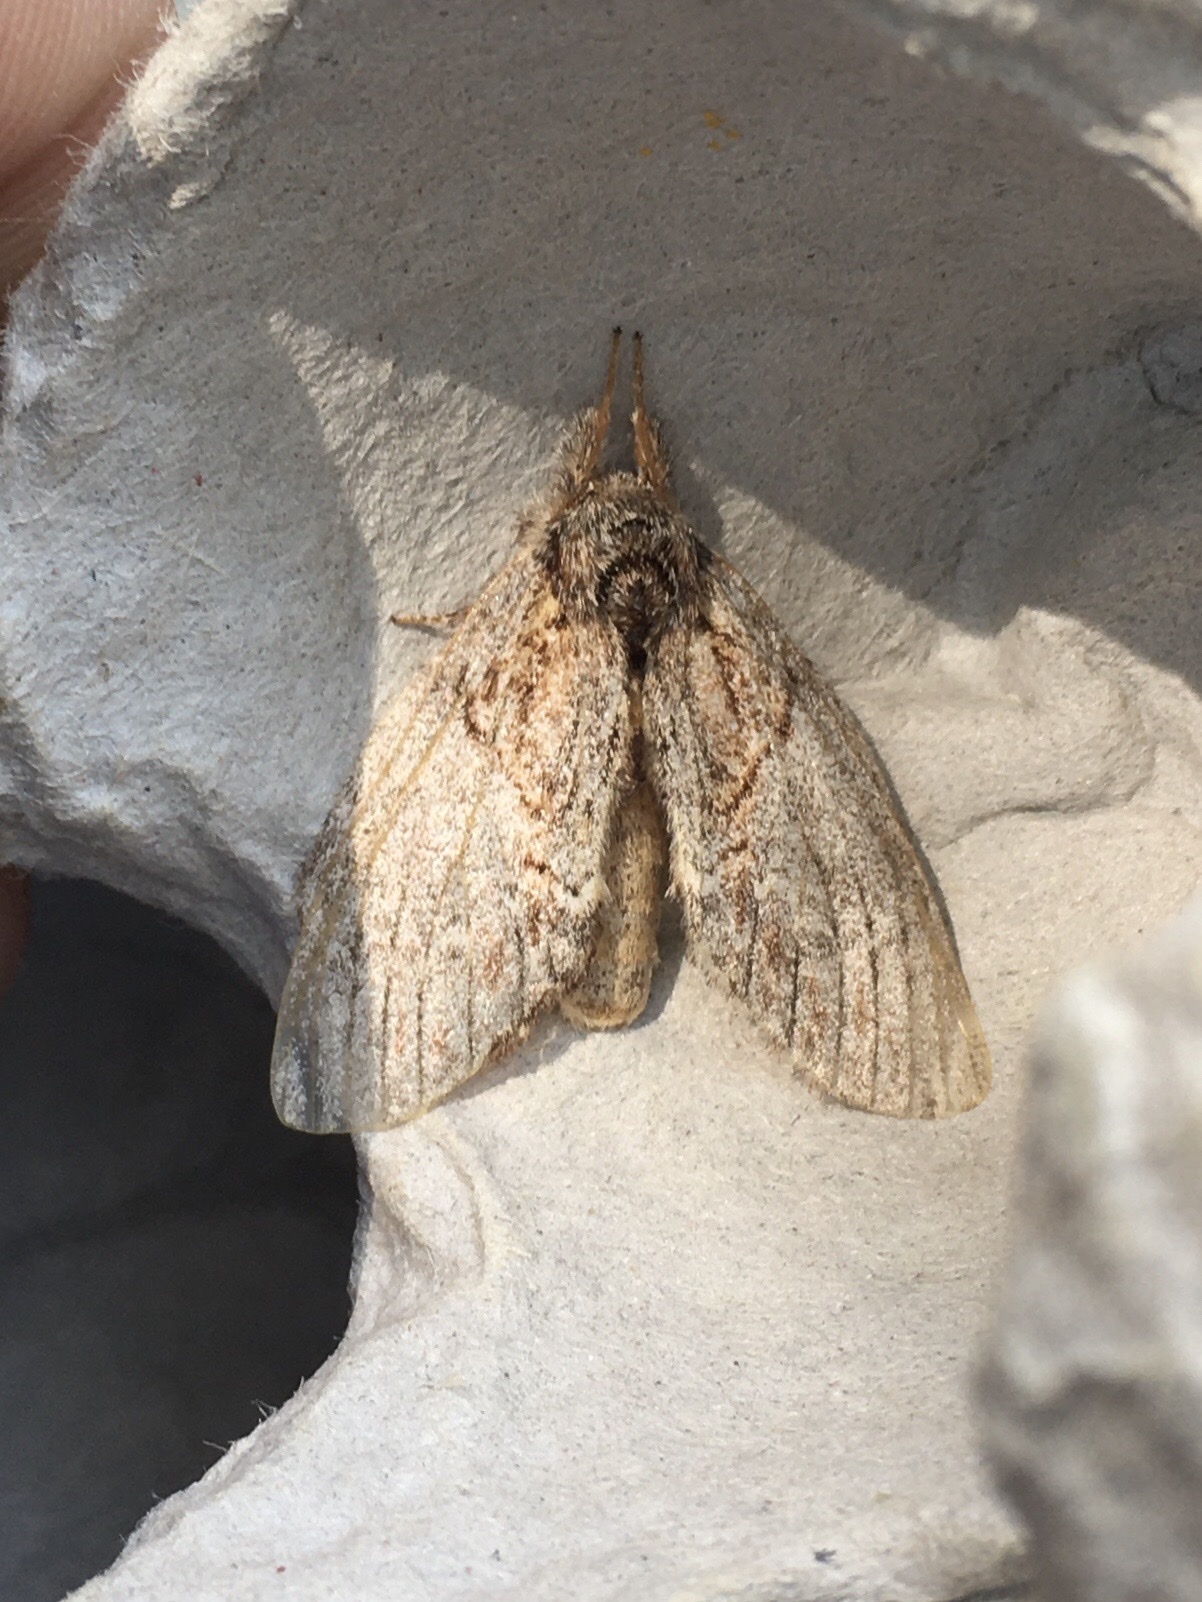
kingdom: Animalia
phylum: Arthropoda
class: Insecta
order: Lepidoptera
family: Notodontidae
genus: Peridea
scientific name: Peridea basitriens
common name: Oval-based prominent
